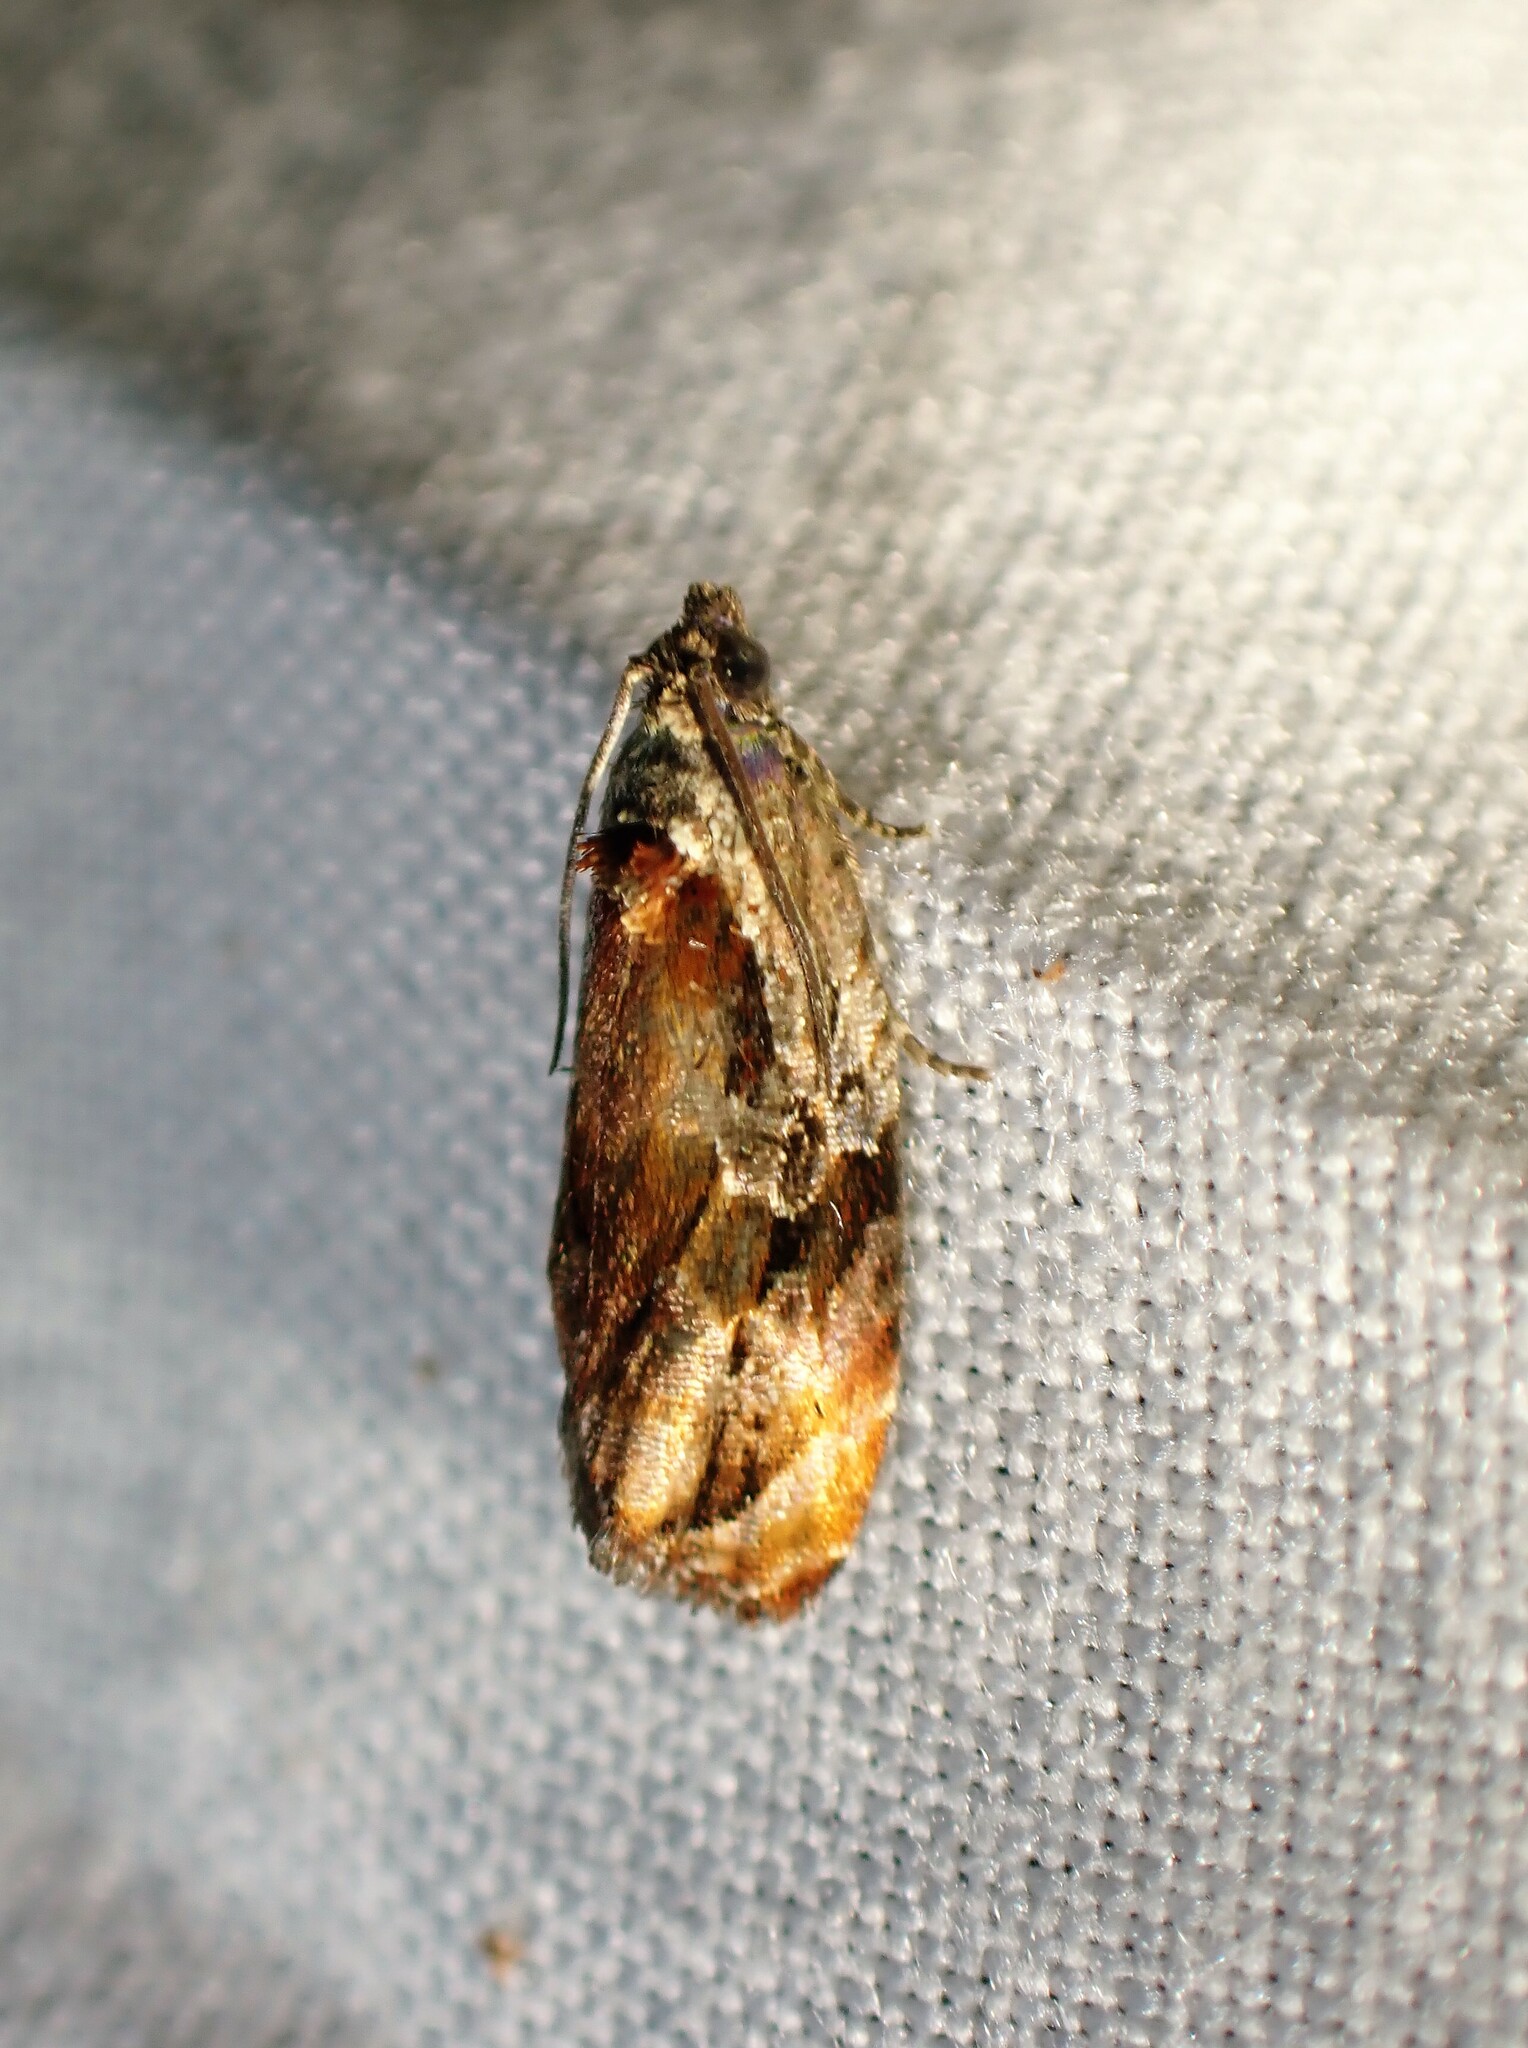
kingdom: Animalia
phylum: Arthropoda
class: Insecta
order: Lepidoptera
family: Tortricidae
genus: Zomaria
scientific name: Zomaria interruptolineana
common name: Broken-lined zomaria moth
